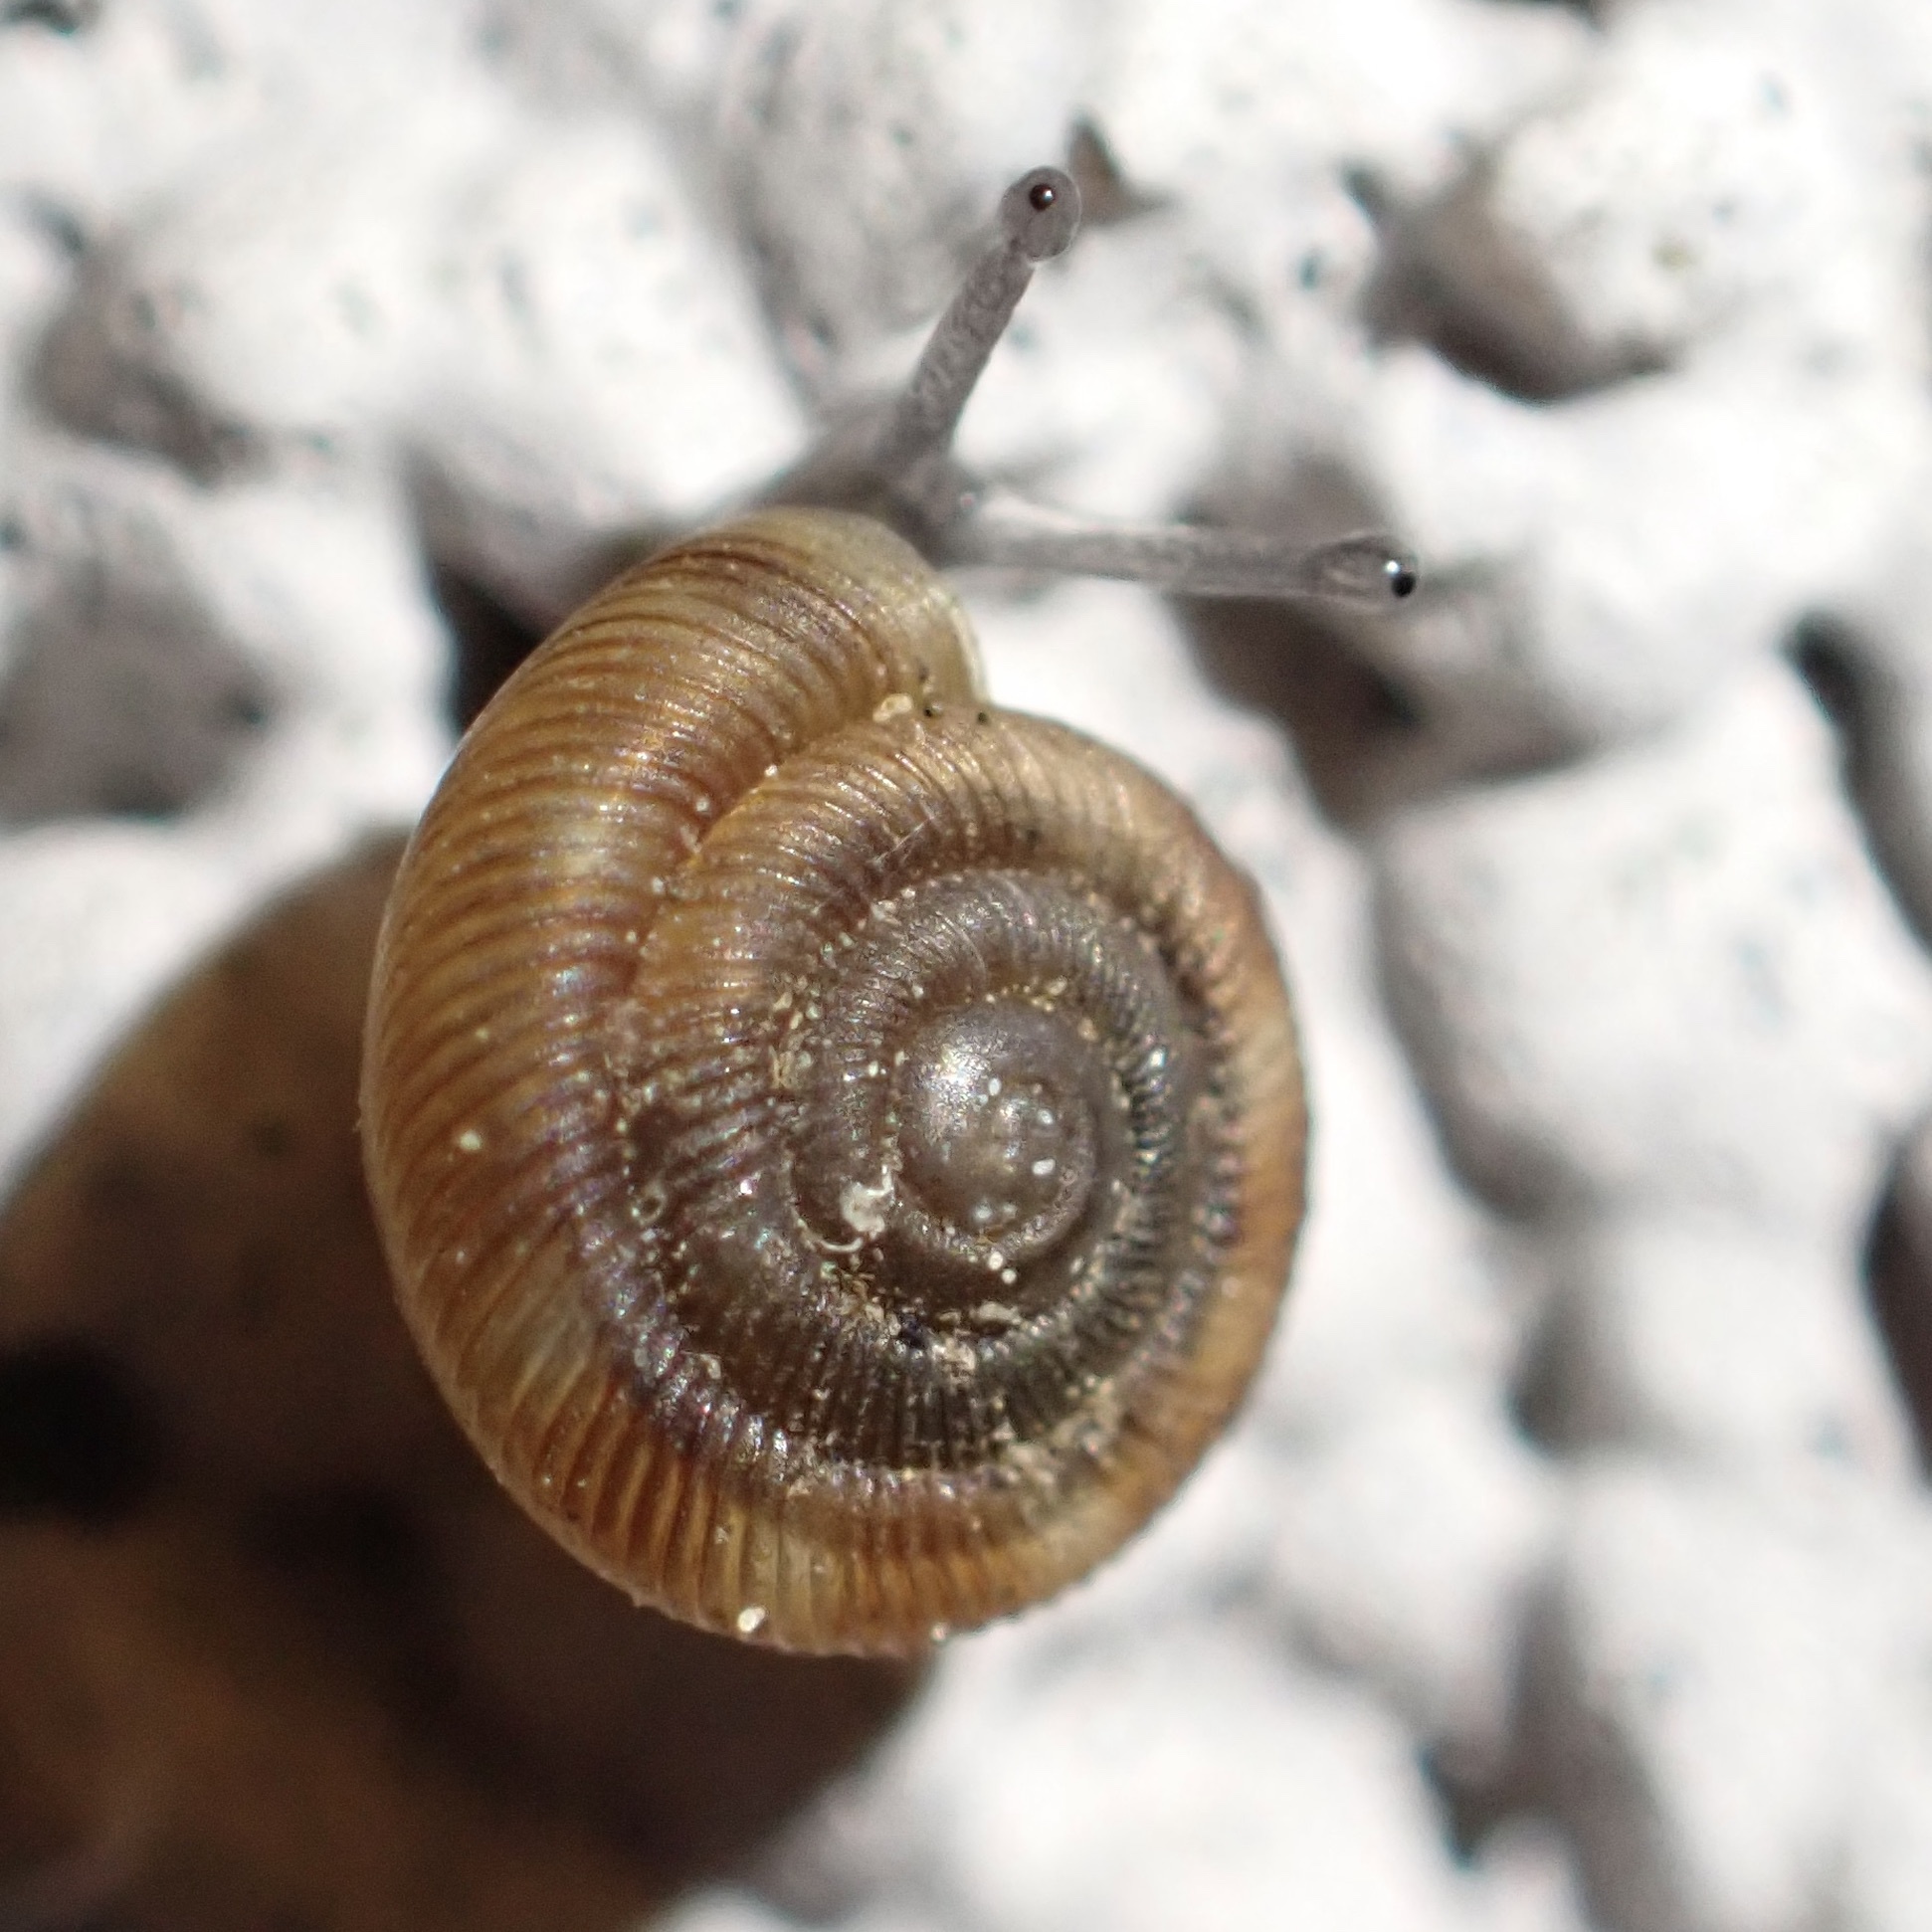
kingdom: Animalia
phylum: Mollusca
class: Gastropoda
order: Stylommatophora
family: Discidae
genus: Discus
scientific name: Discus rotundatus
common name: Rounded snail
